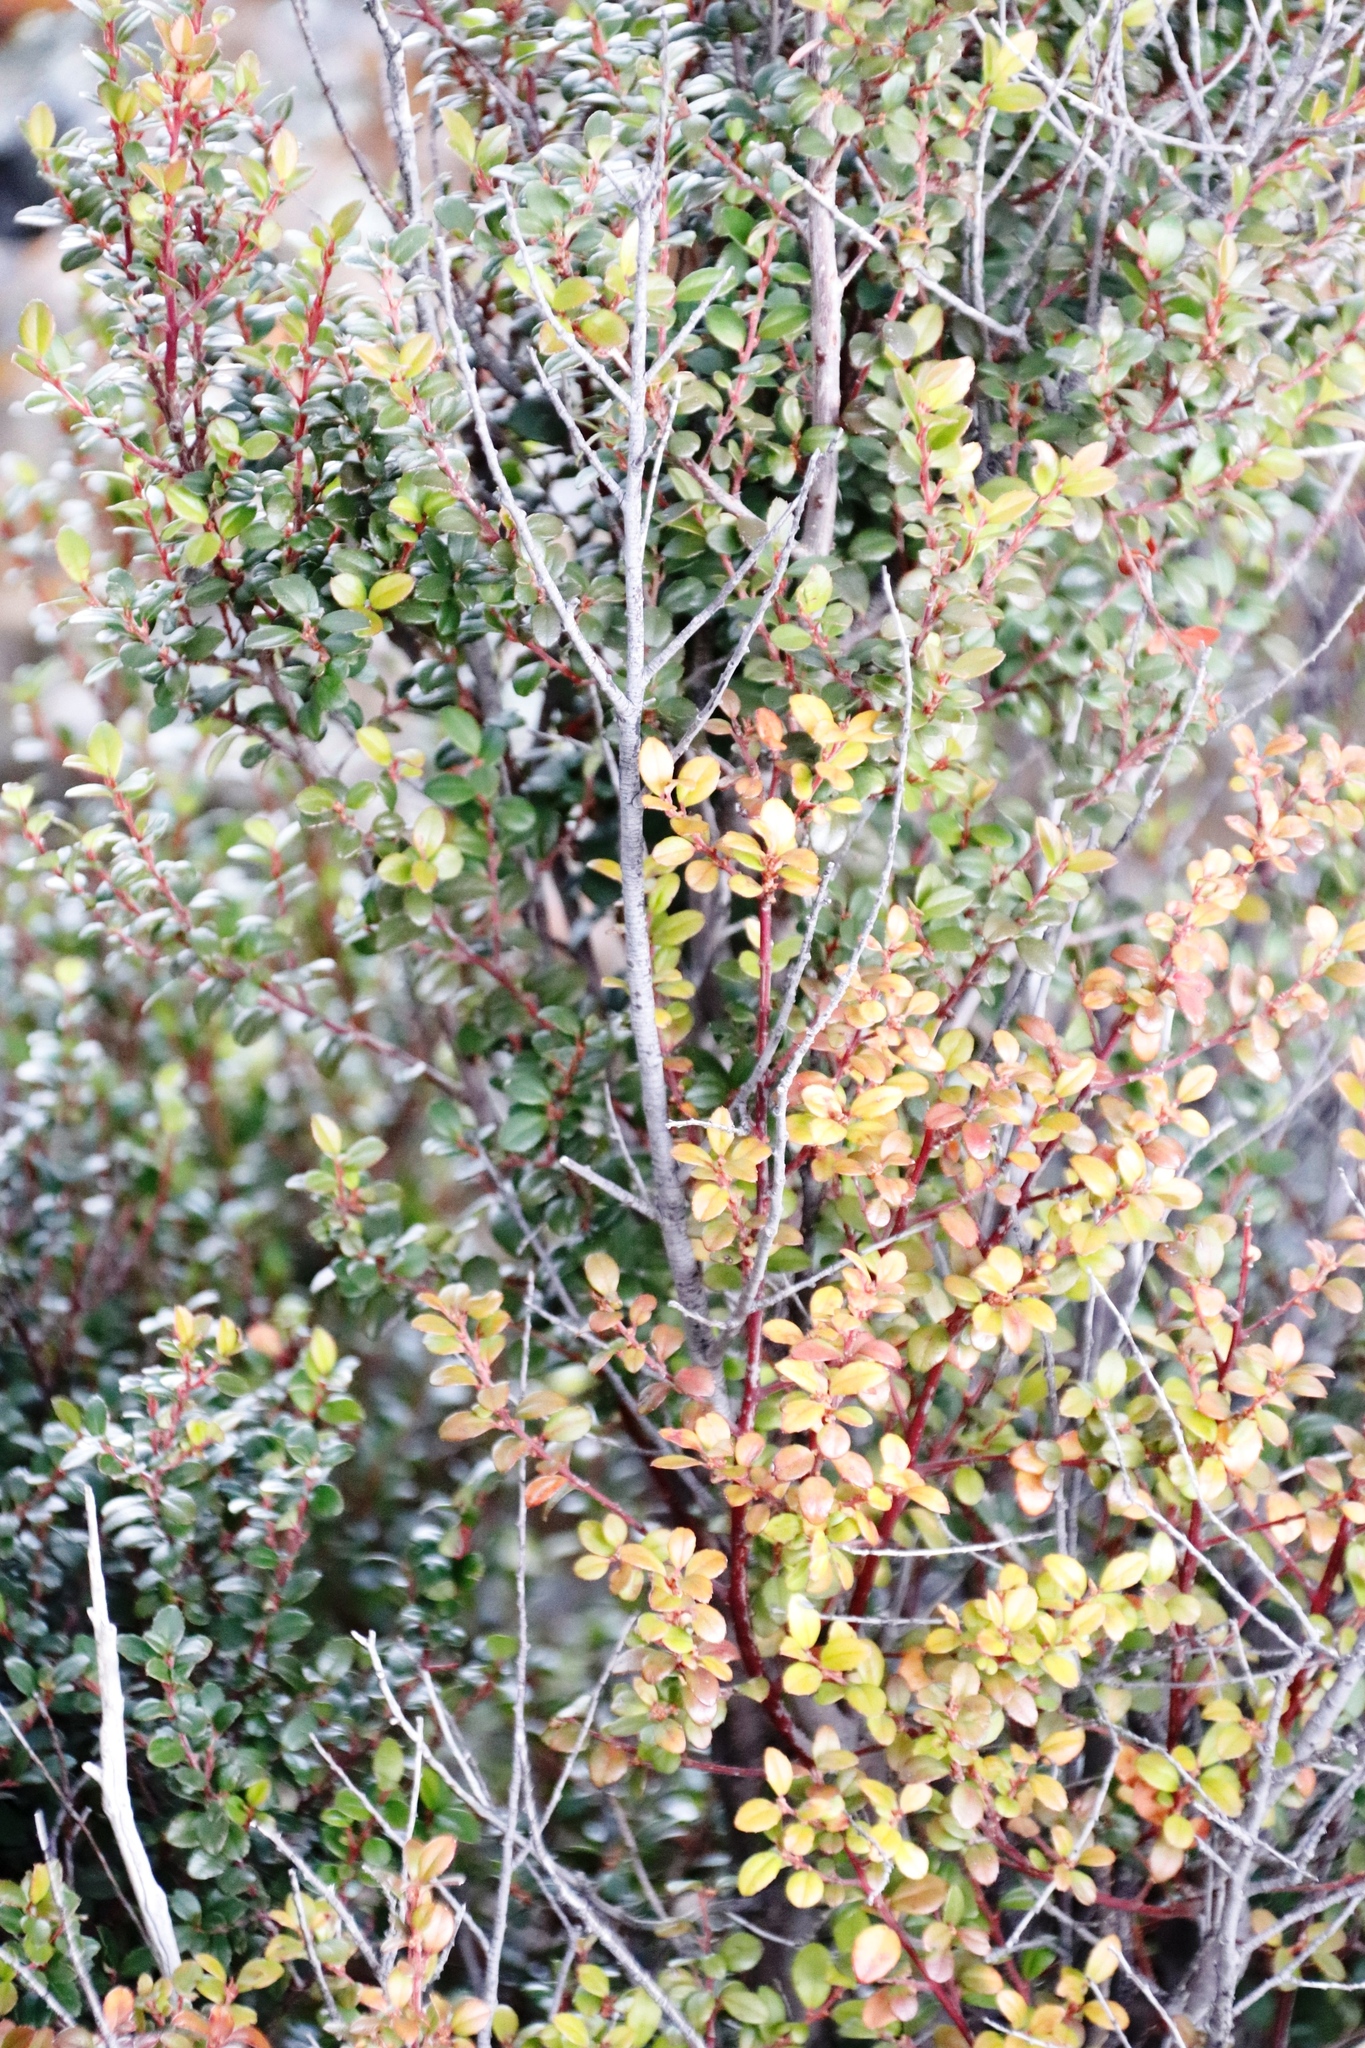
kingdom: Plantae
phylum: Tracheophyta
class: Magnoliopsida
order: Ericales
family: Primulaceae
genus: Myrsine
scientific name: Myrsine africana
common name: African-boxwood
